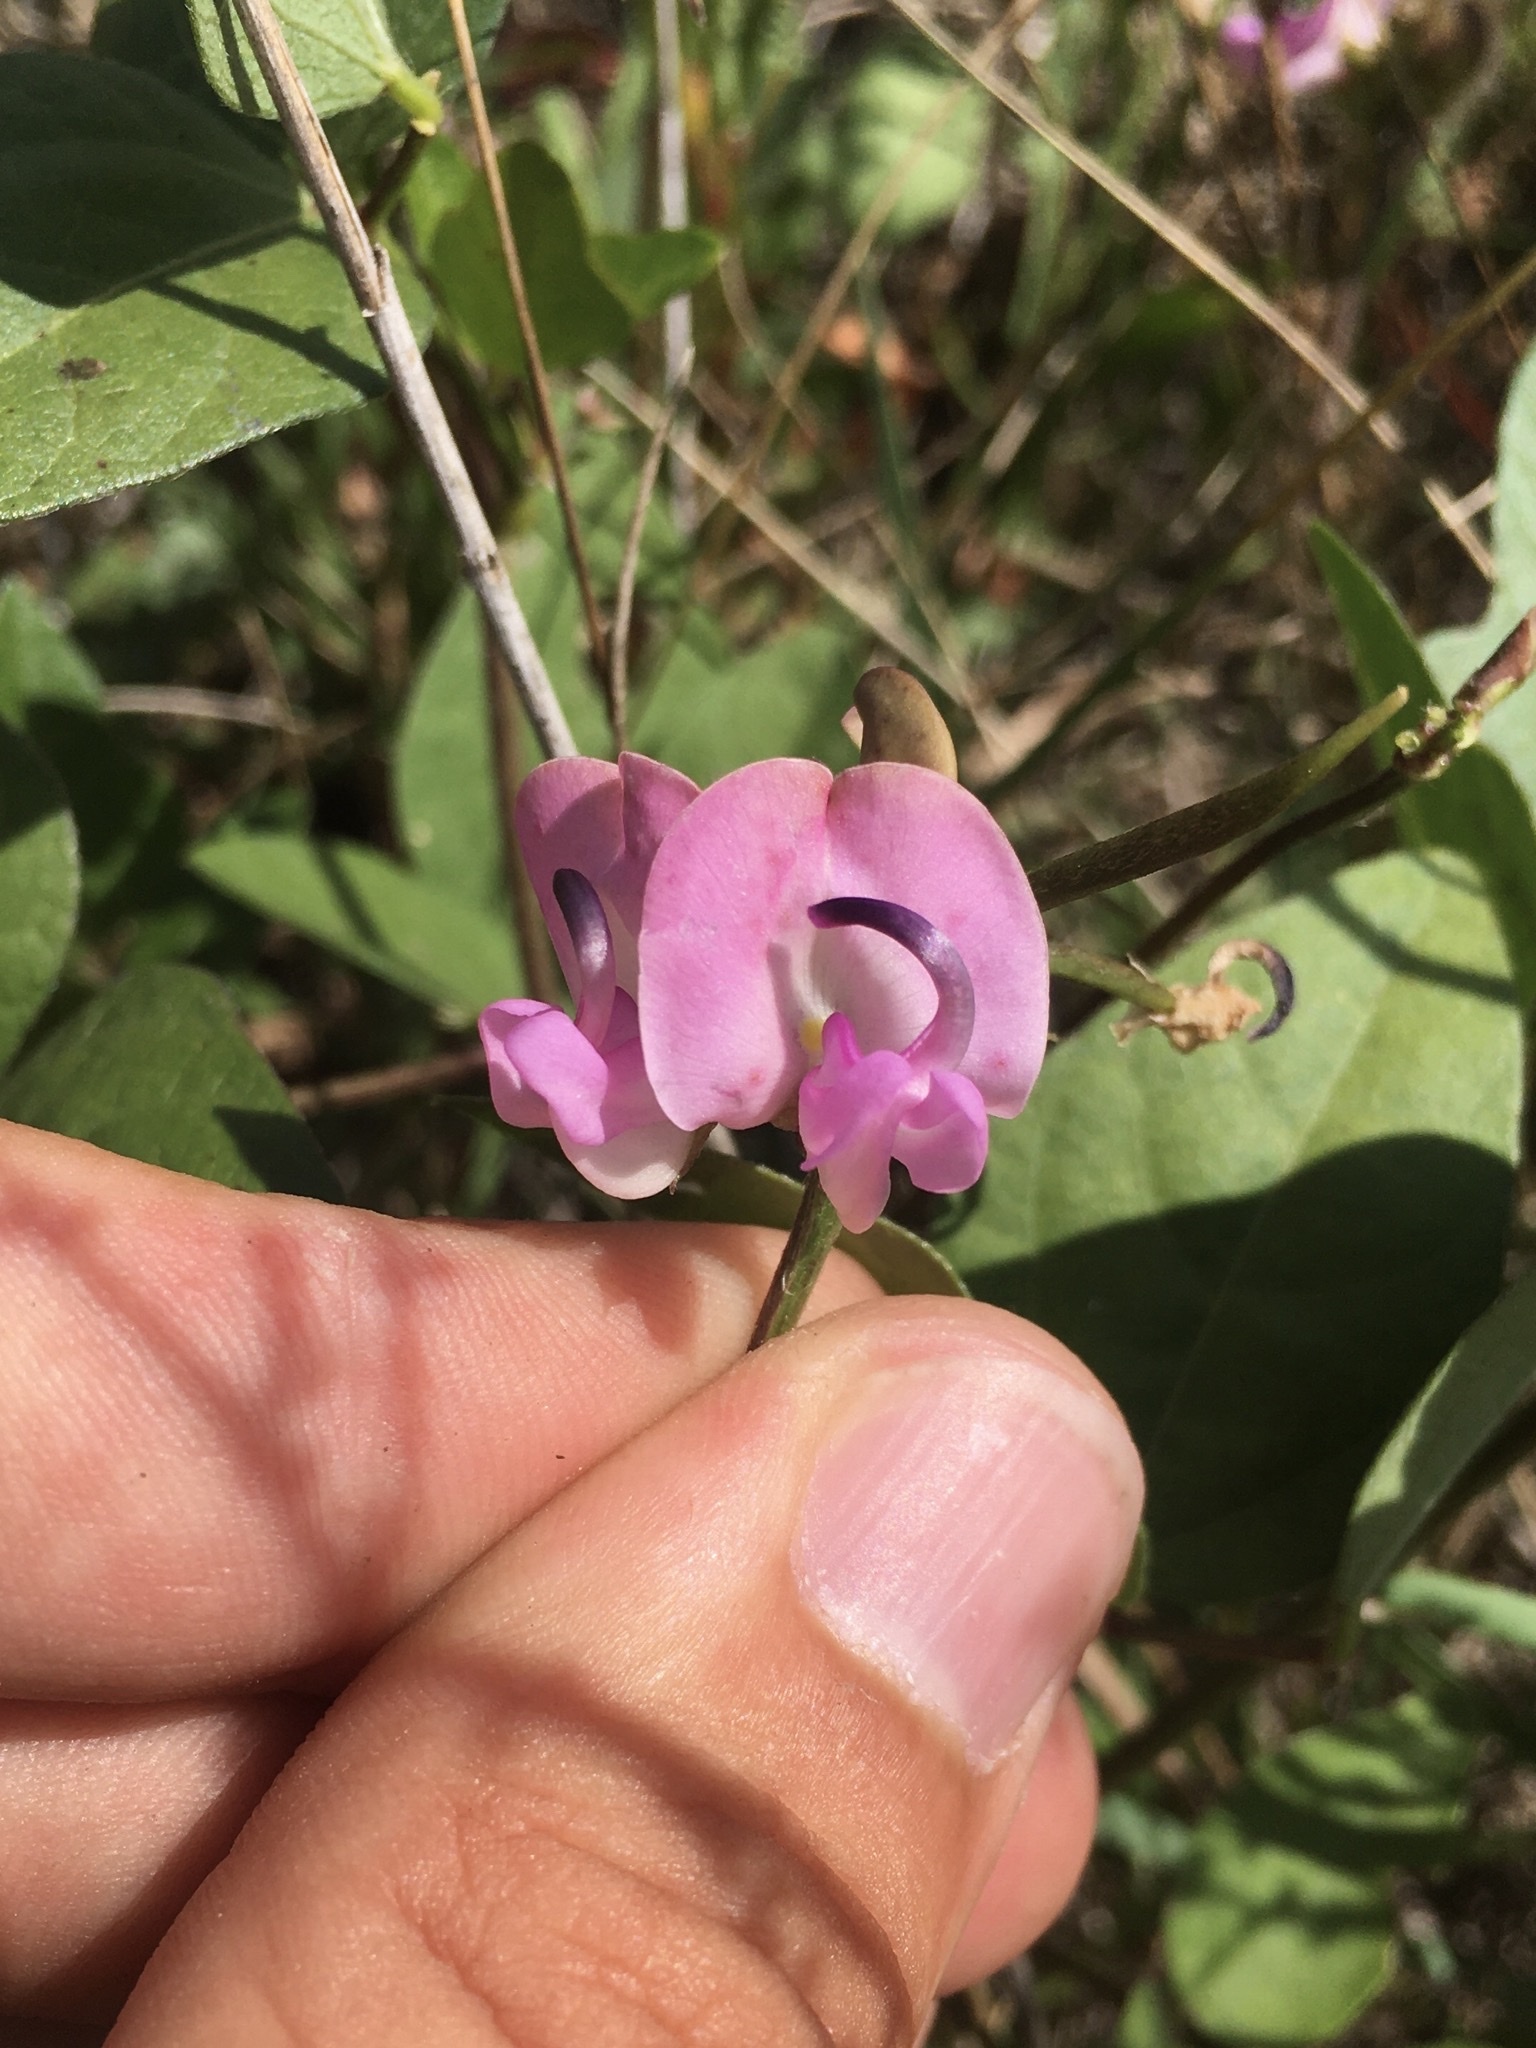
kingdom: Plantae
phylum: Tracheophyta
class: Magnoliopsida
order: Fabales
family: Fabaceae
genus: Strophostyles
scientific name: Strophostyles helvola
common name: Trailing wild bean
